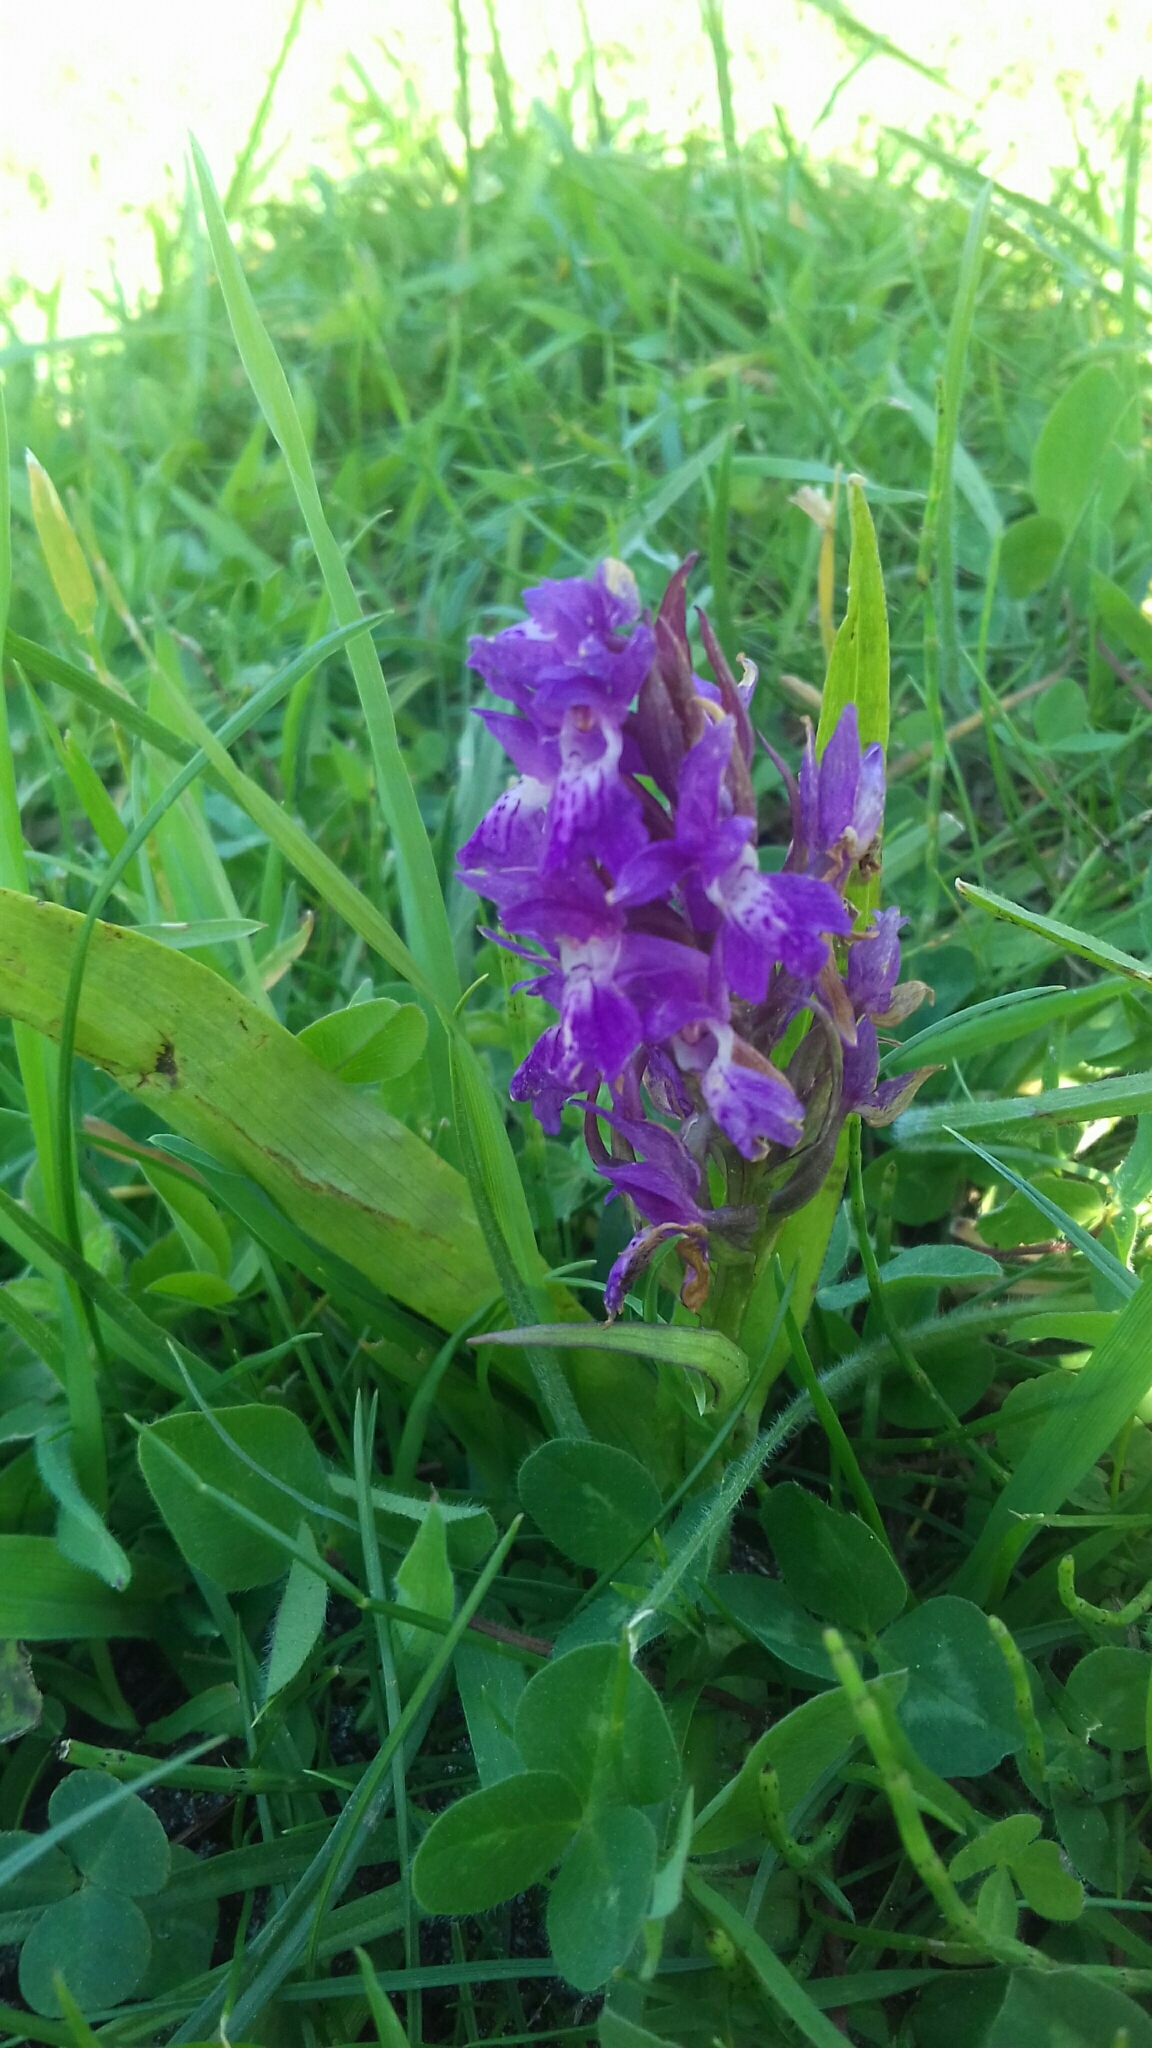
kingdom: Plantae
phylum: Tracheophyta
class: Liliopsida
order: Asparagales
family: Orchidaceae
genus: Dactylorhiza
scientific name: Dactylorhiza majalis
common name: Marsh orchid
